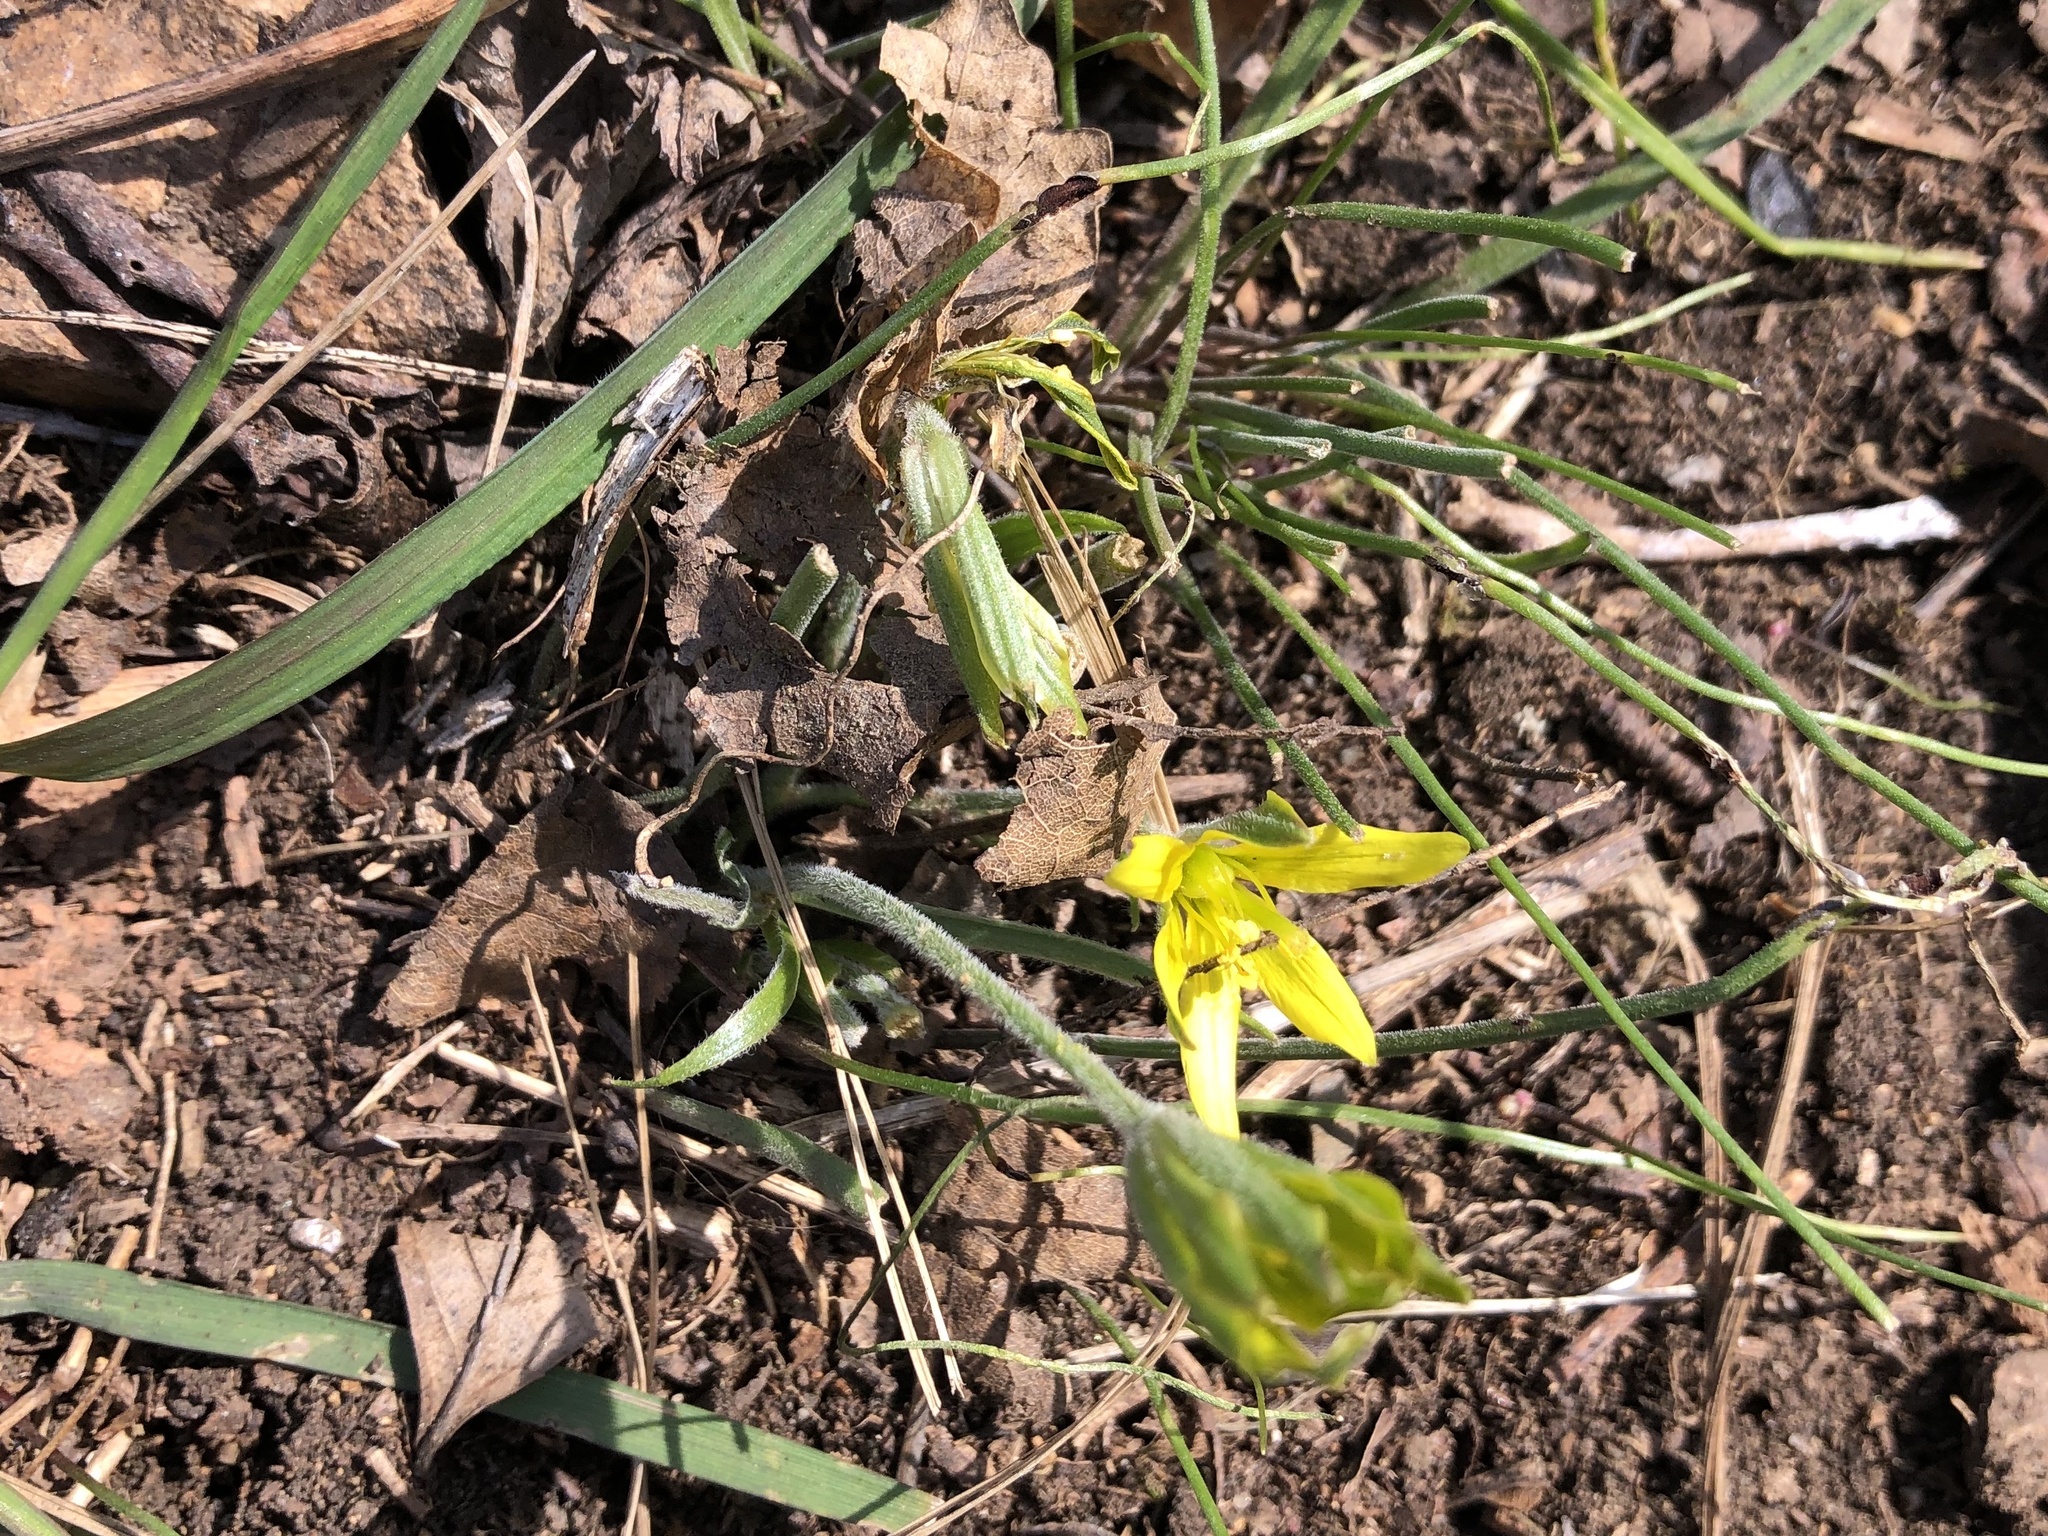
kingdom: Plantae
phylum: Tracheophyta
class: Liliopsida
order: Liliales
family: Liliaceae
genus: Gagea
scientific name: Gagea villosa
